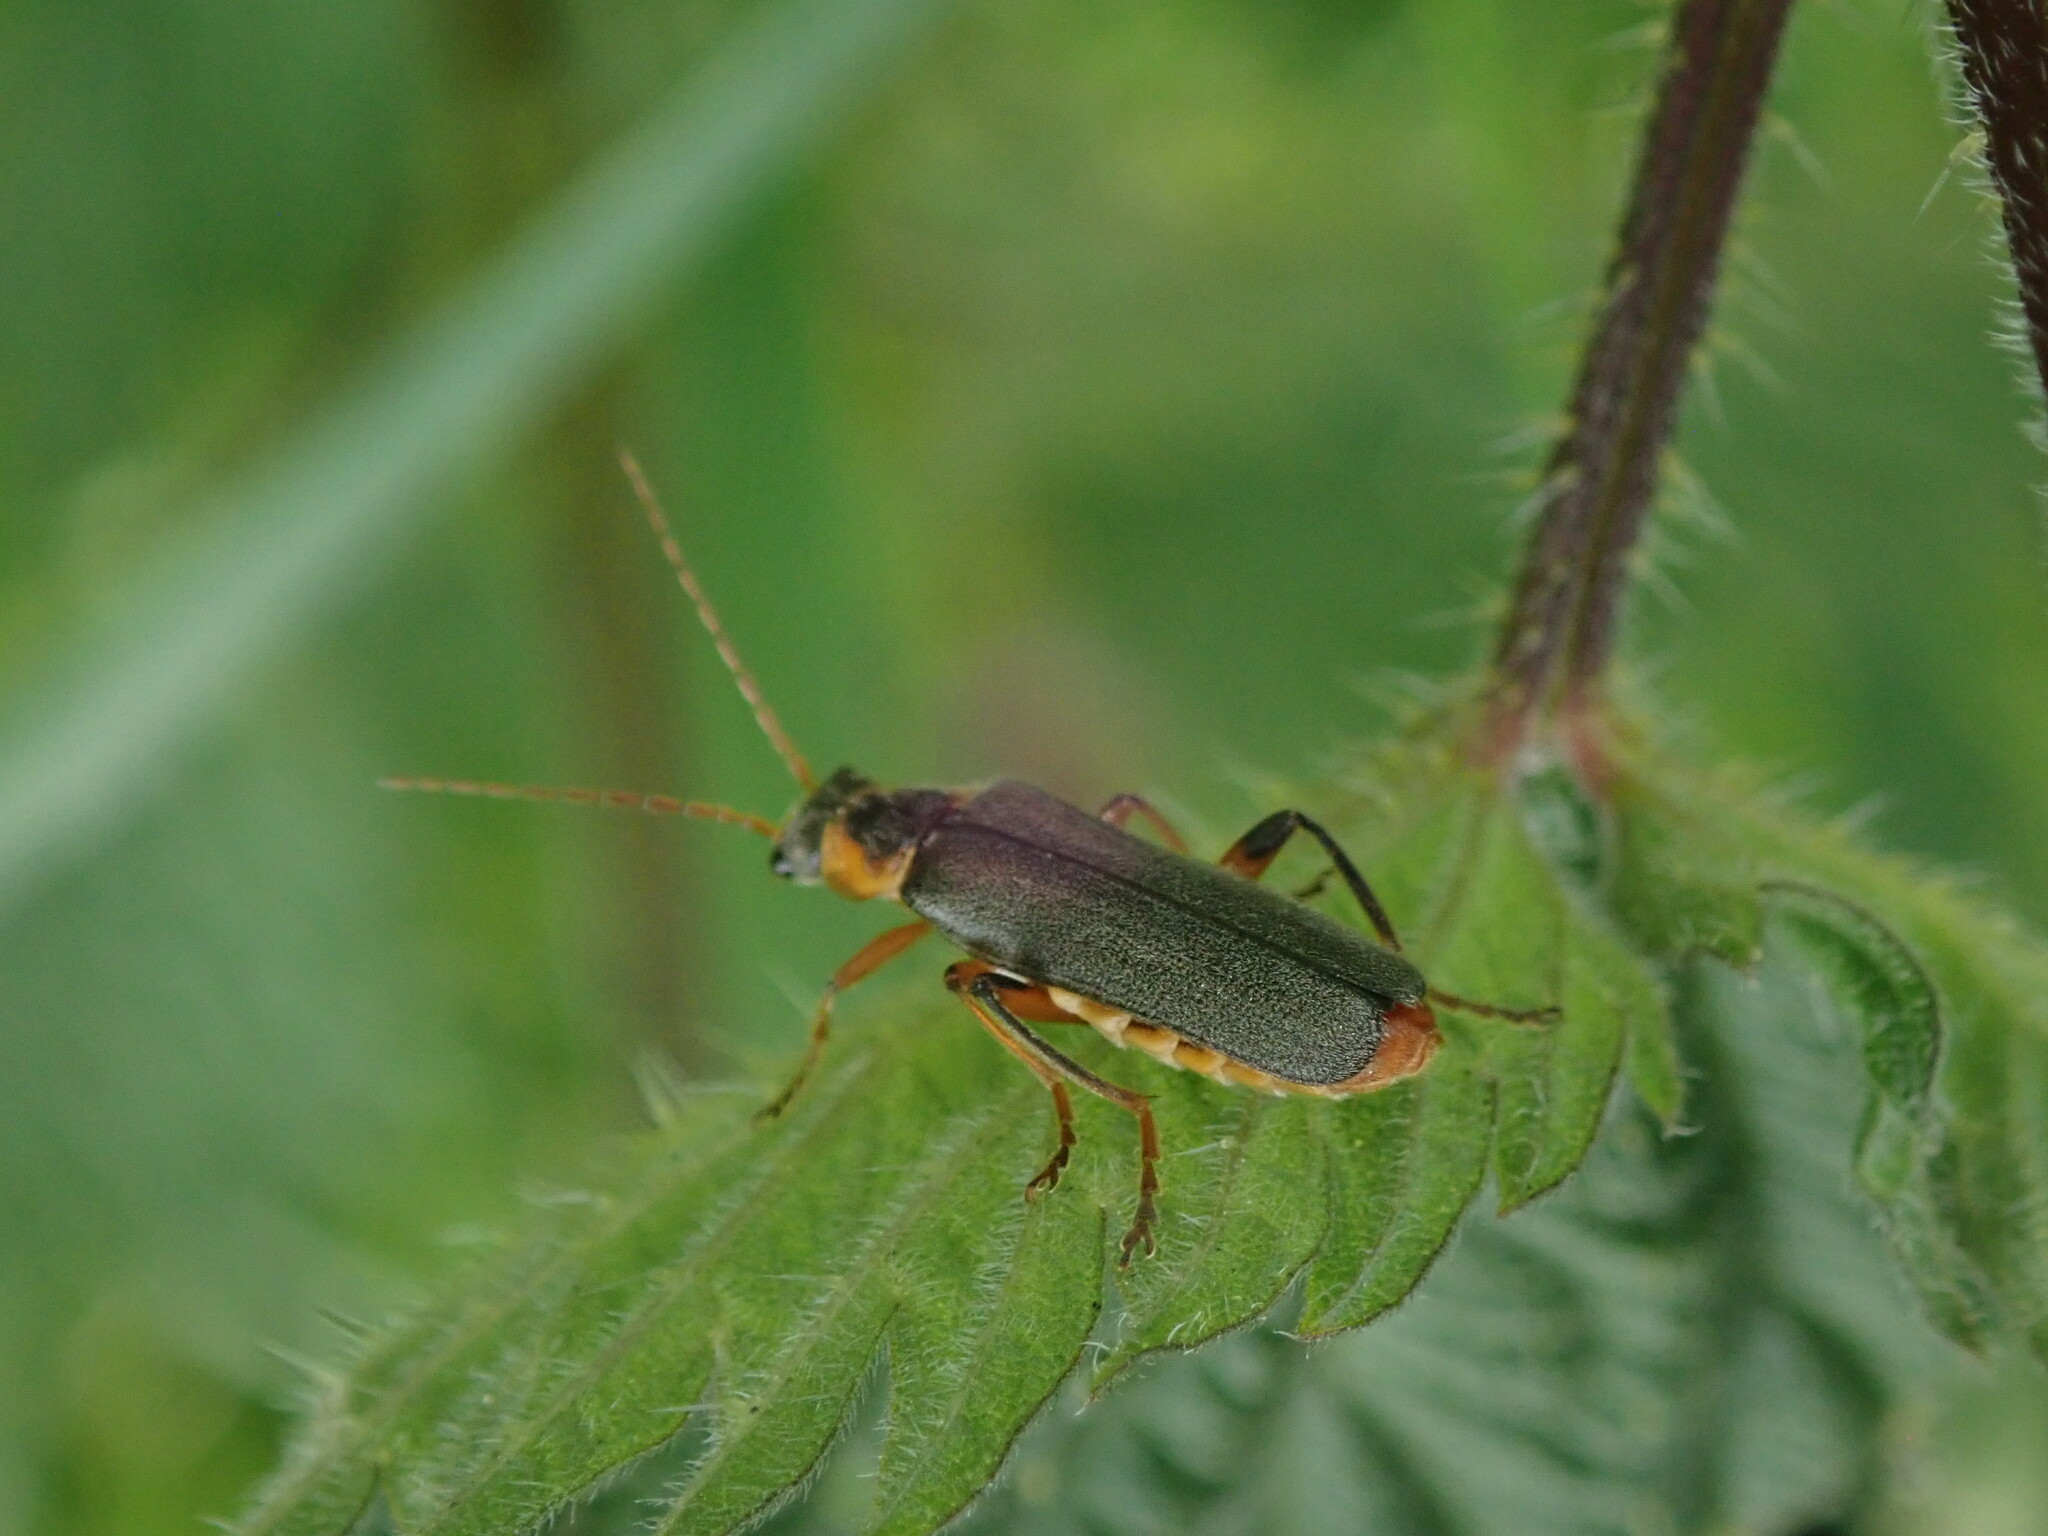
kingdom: Animalia
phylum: Arthropoda
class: Insecta
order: Coleoptera
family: Cantharidae
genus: Cantharis
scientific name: Cantharis nigricans
